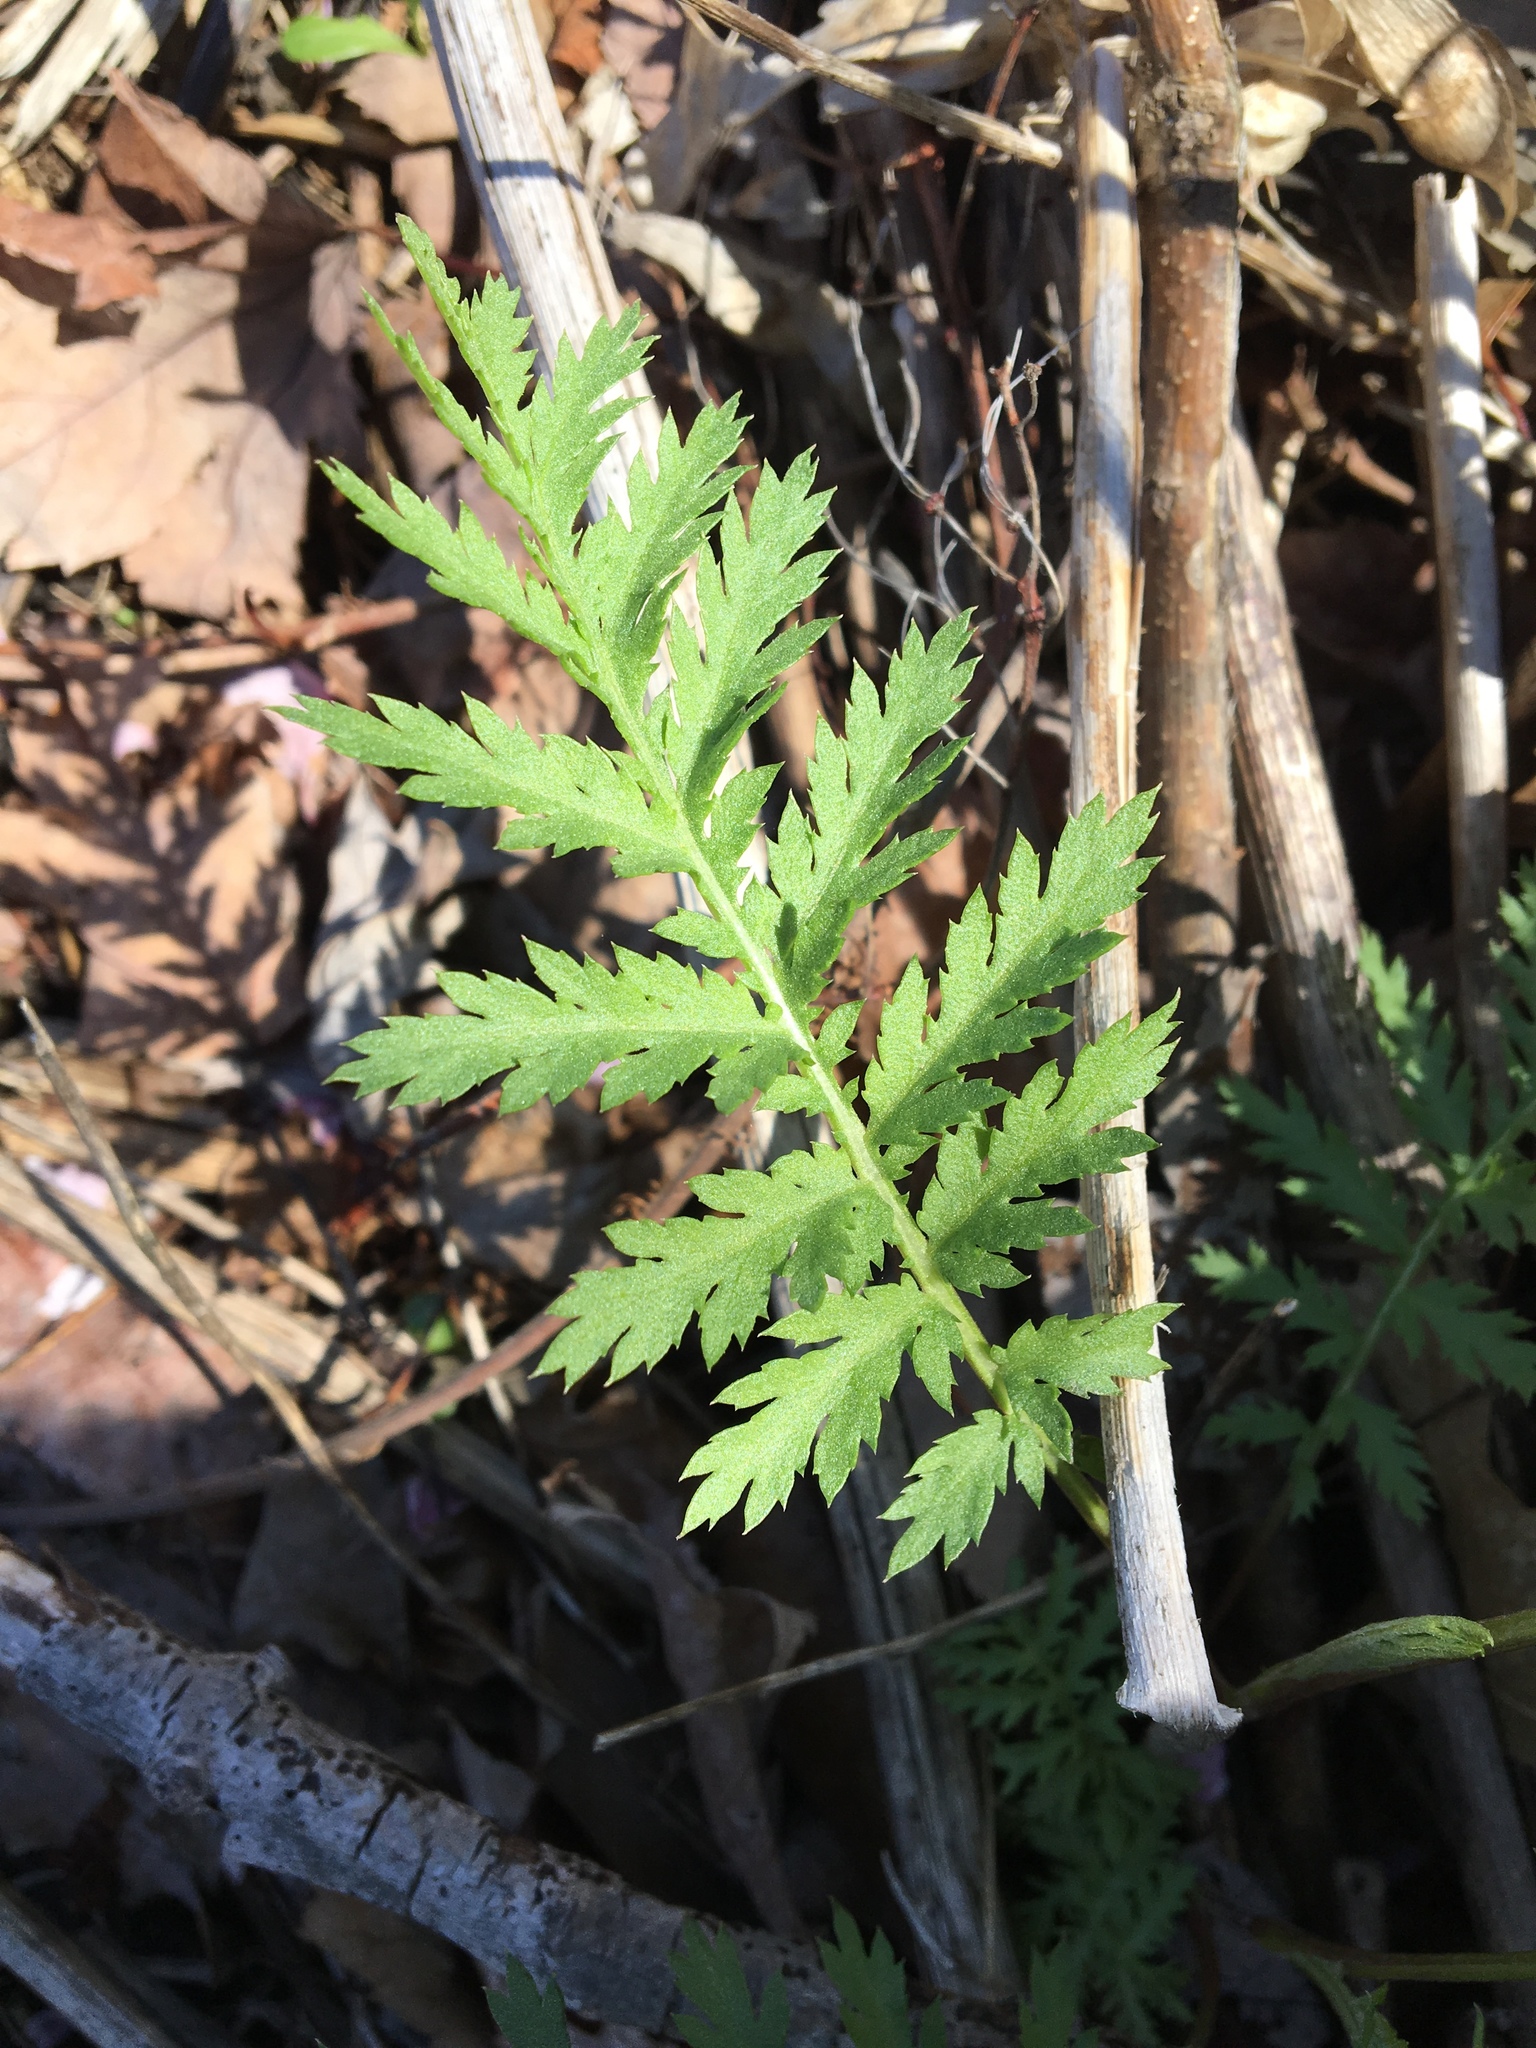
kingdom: Plantae
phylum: Tracheophyta
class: Magnoliopsida
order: Asterales
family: Asteraceae
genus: Tanacetum
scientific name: Tanacetum vulgare
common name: Common tansy
